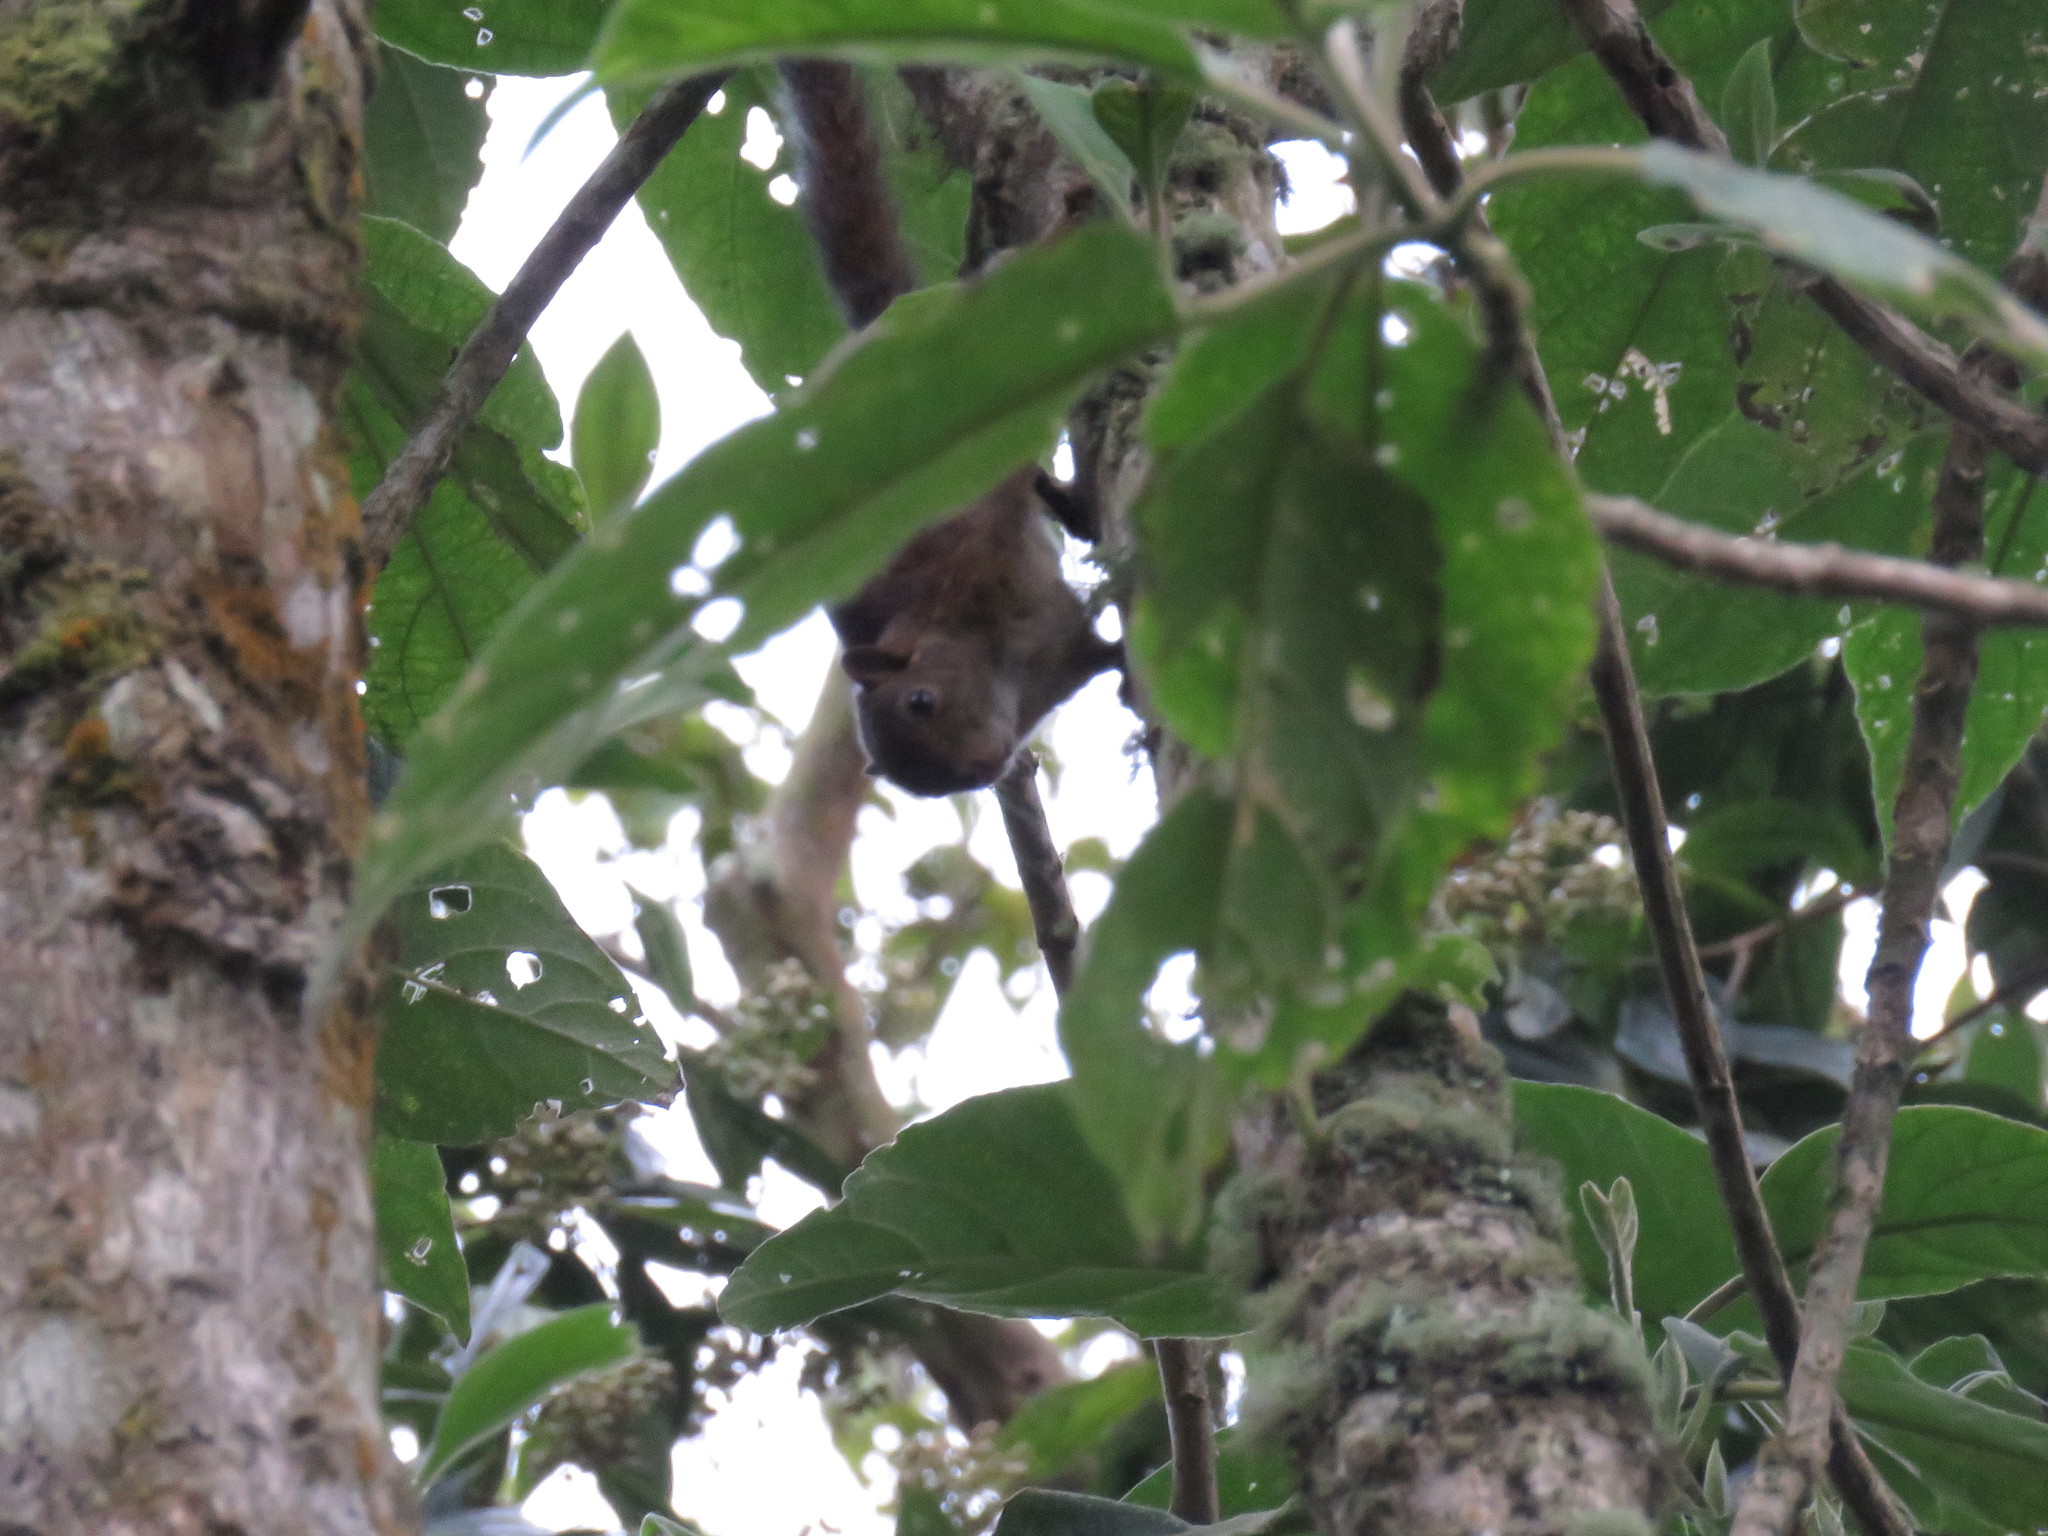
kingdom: Animalia
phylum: Chordata
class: Mammalia
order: Rodentia
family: Sciuridae
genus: Sciurus
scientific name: Sciurus granatensis
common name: Red-tailed squirrel
